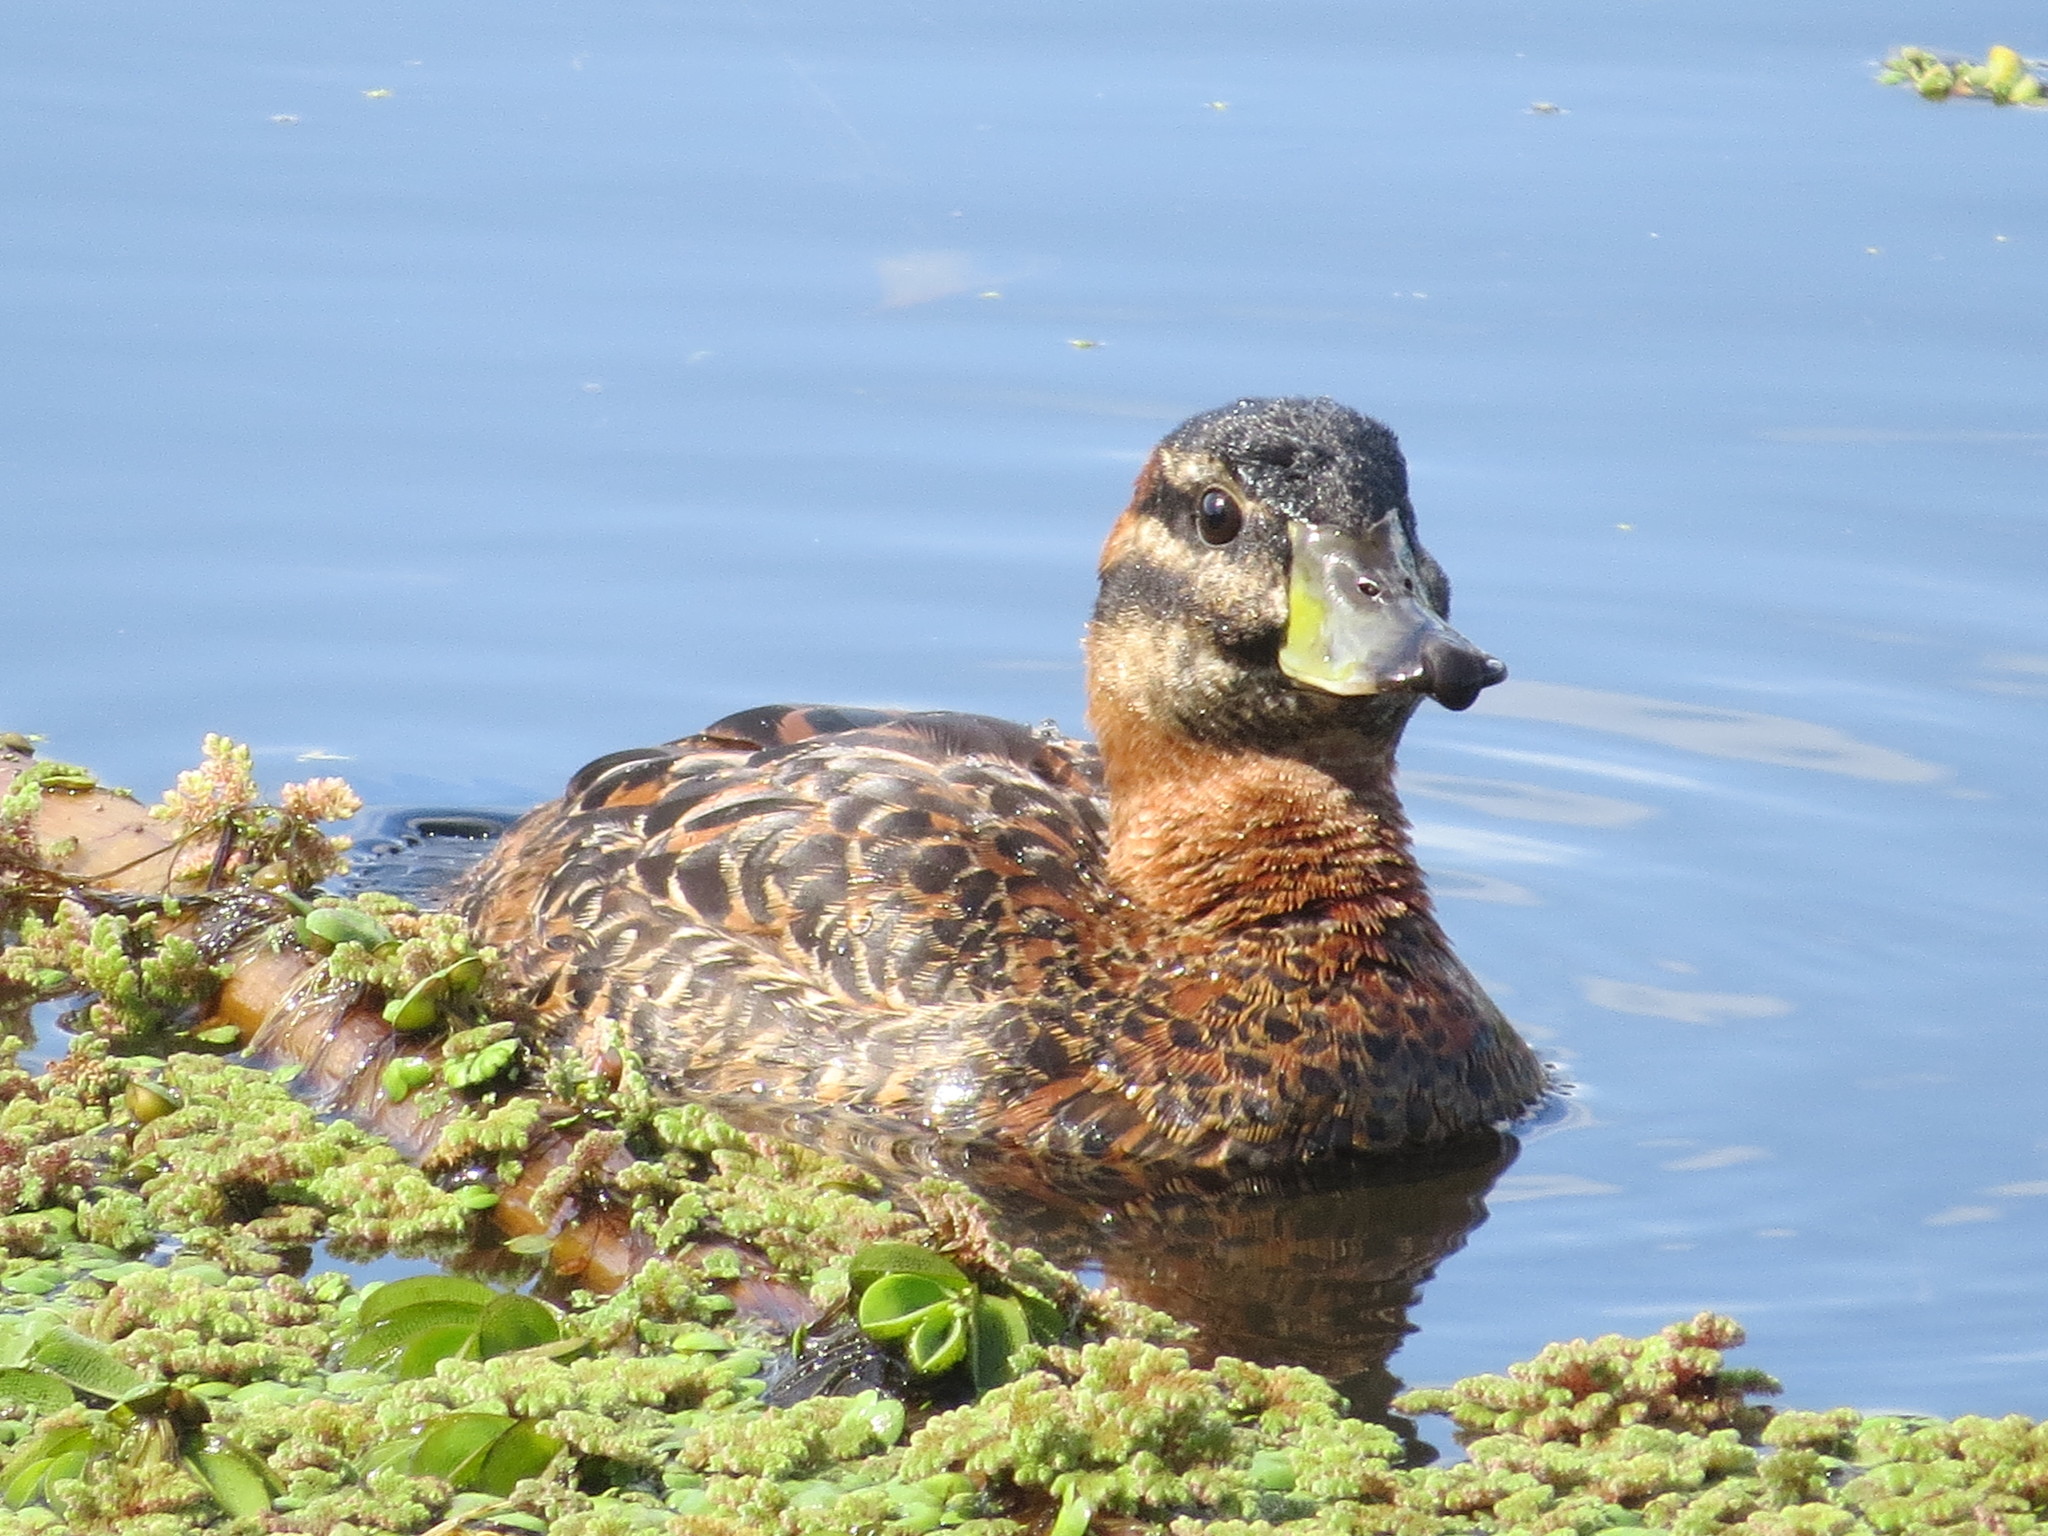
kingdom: Animalia
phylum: Chordata
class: Aves
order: Anseriformes
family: Anatidae
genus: Nomonyx
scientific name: Nomonyx dominicus
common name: Masked duck
